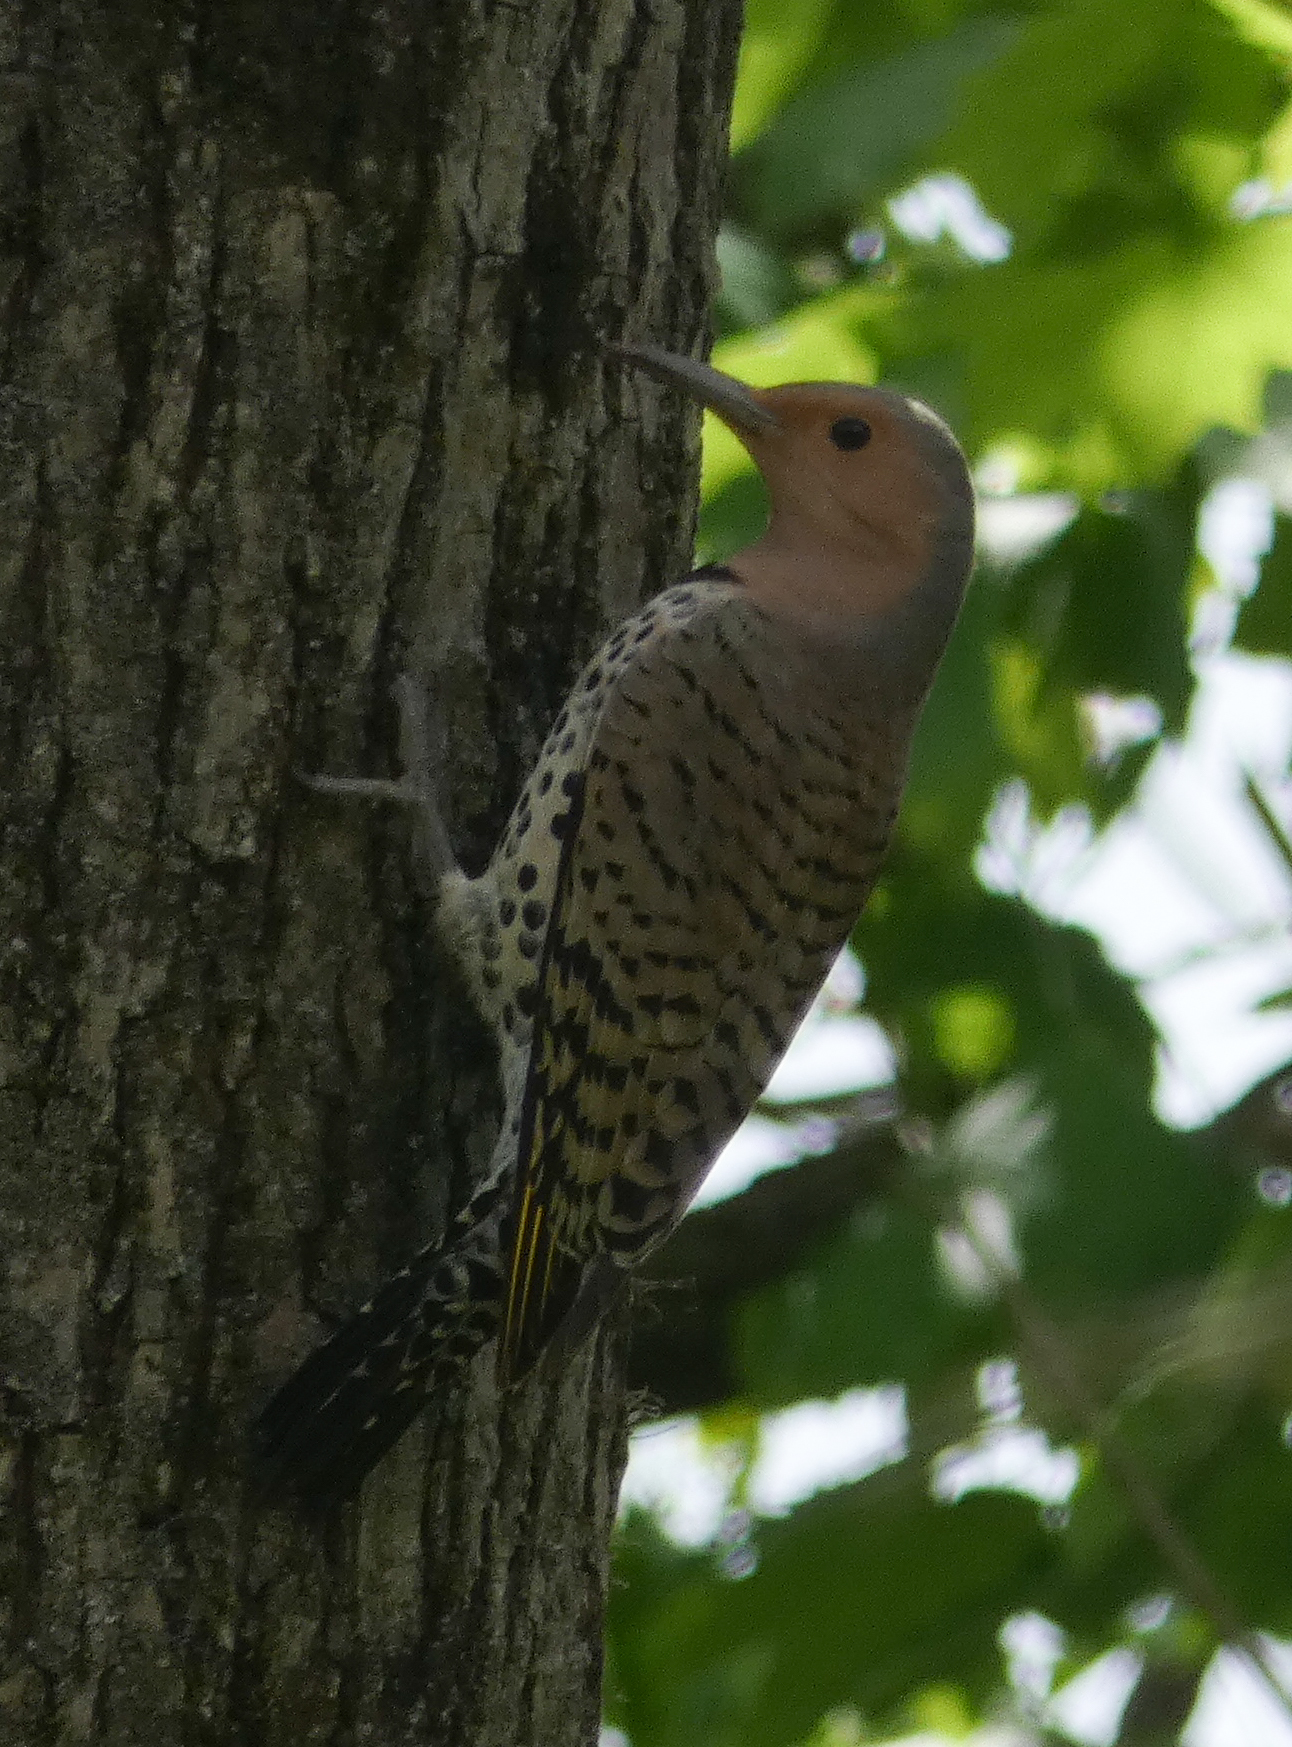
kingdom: Animalia
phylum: Chordata
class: Aves
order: Piciformes
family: Picidae
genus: Colaptes
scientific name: Colaptes auratus
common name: Northern flicker
